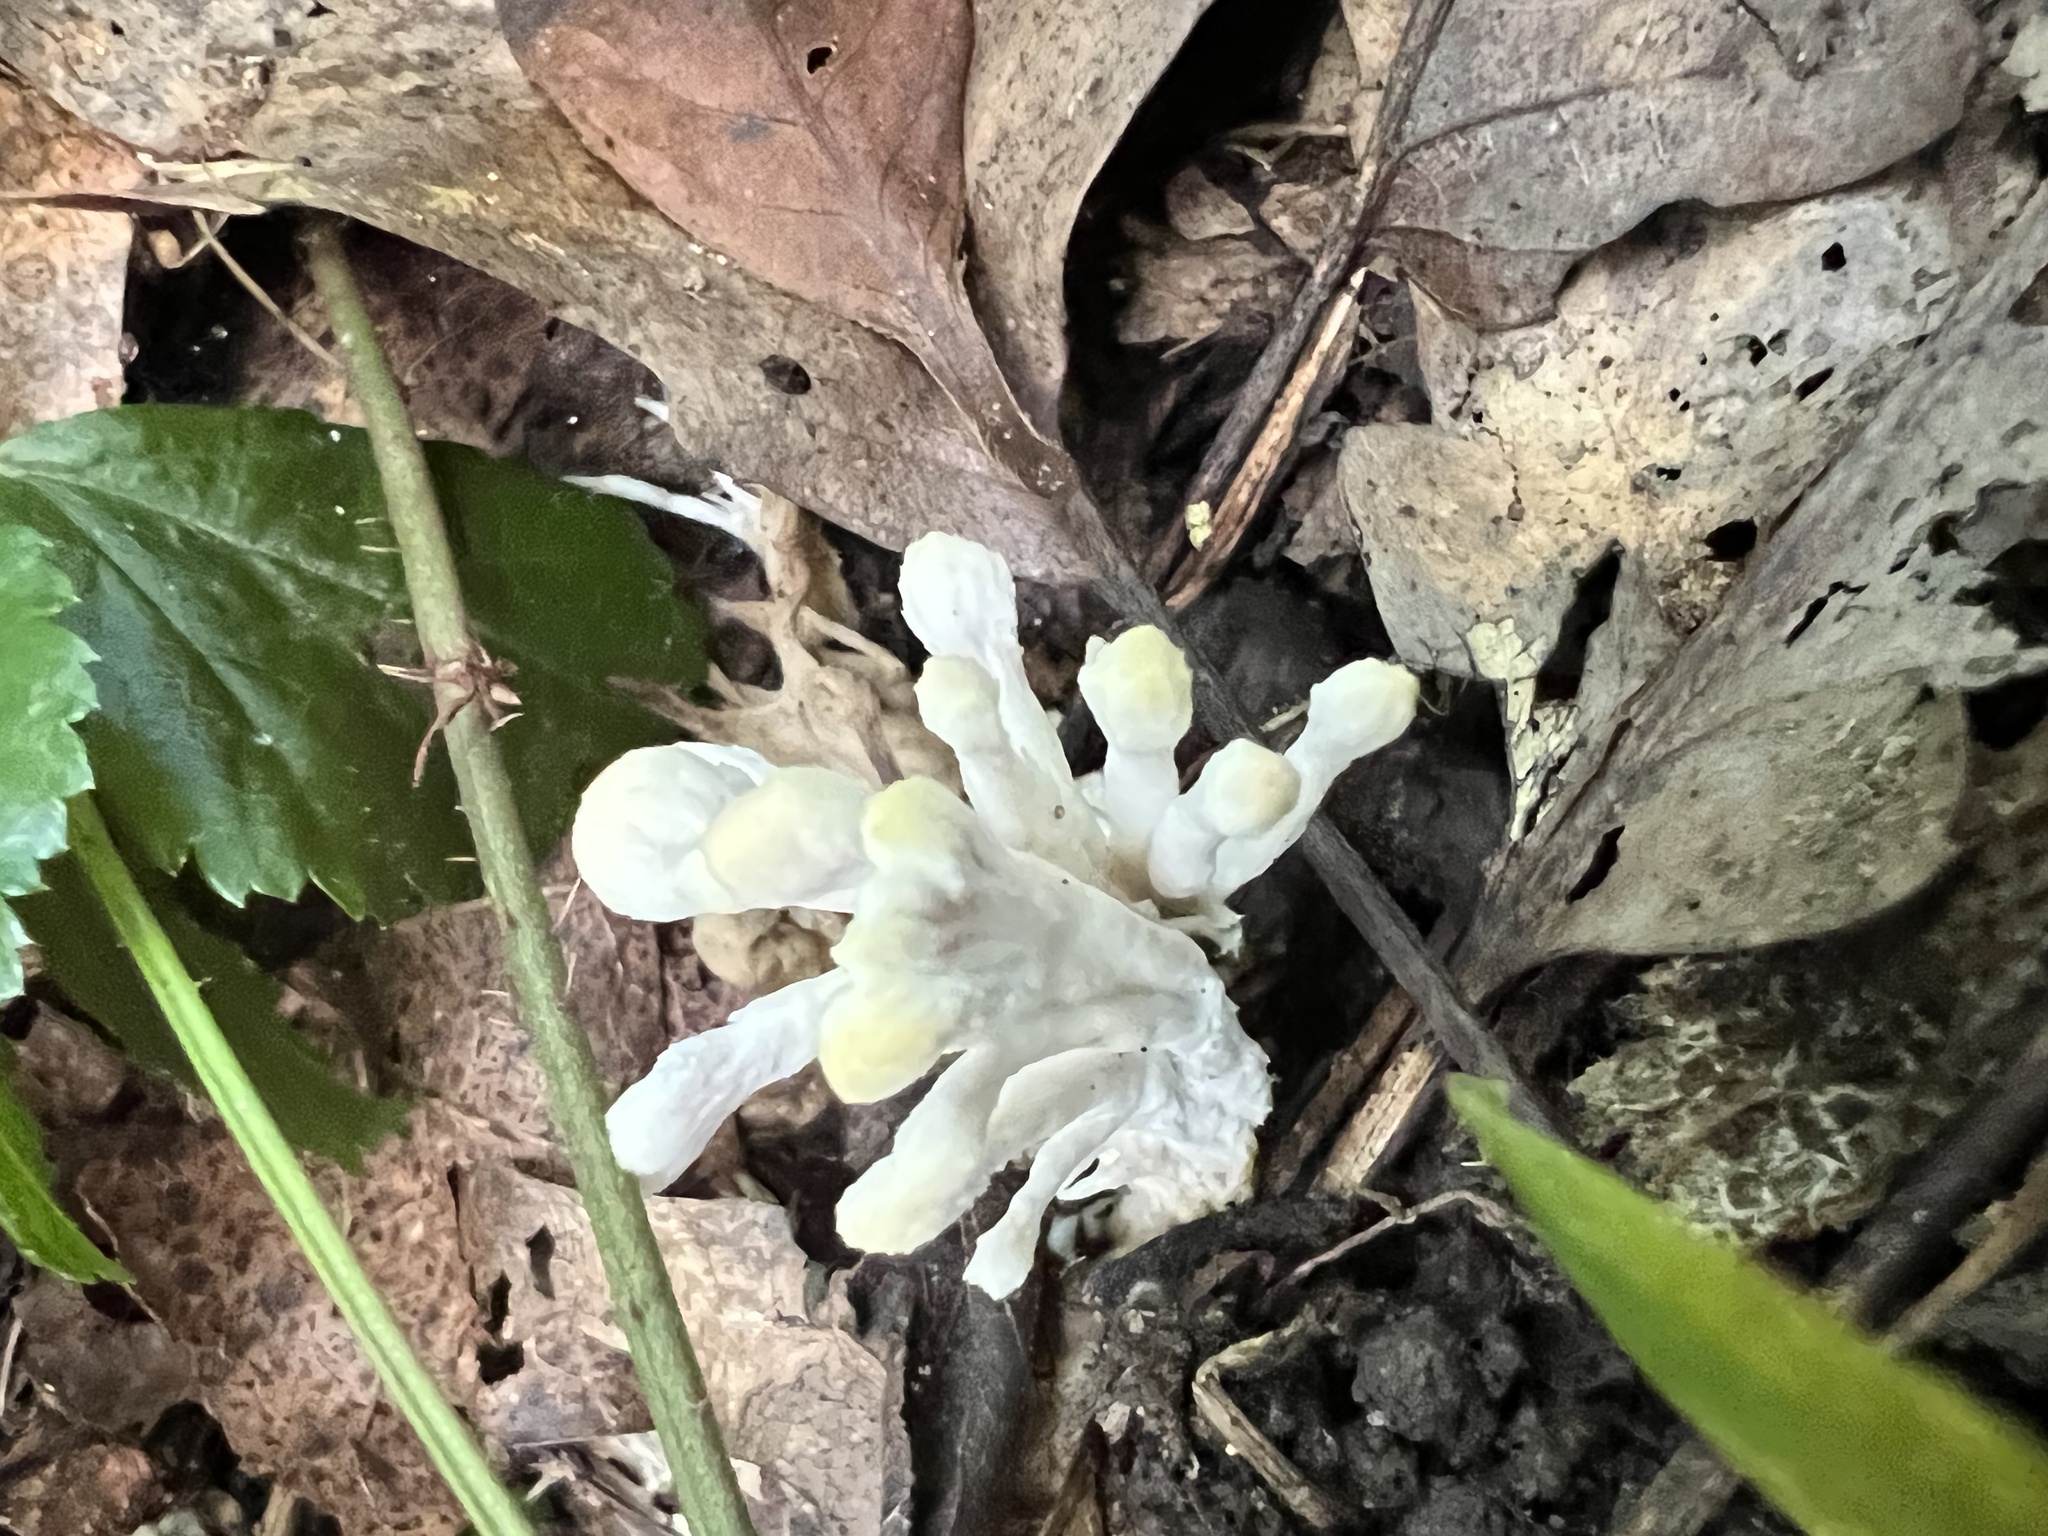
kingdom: Fungi
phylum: Basidiomycota
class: Agaricomycetes
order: Sebacinales
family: Sebacinaceae
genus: Sebacina
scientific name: Sebacina schweinitzii
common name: Jellied false coral fungus
